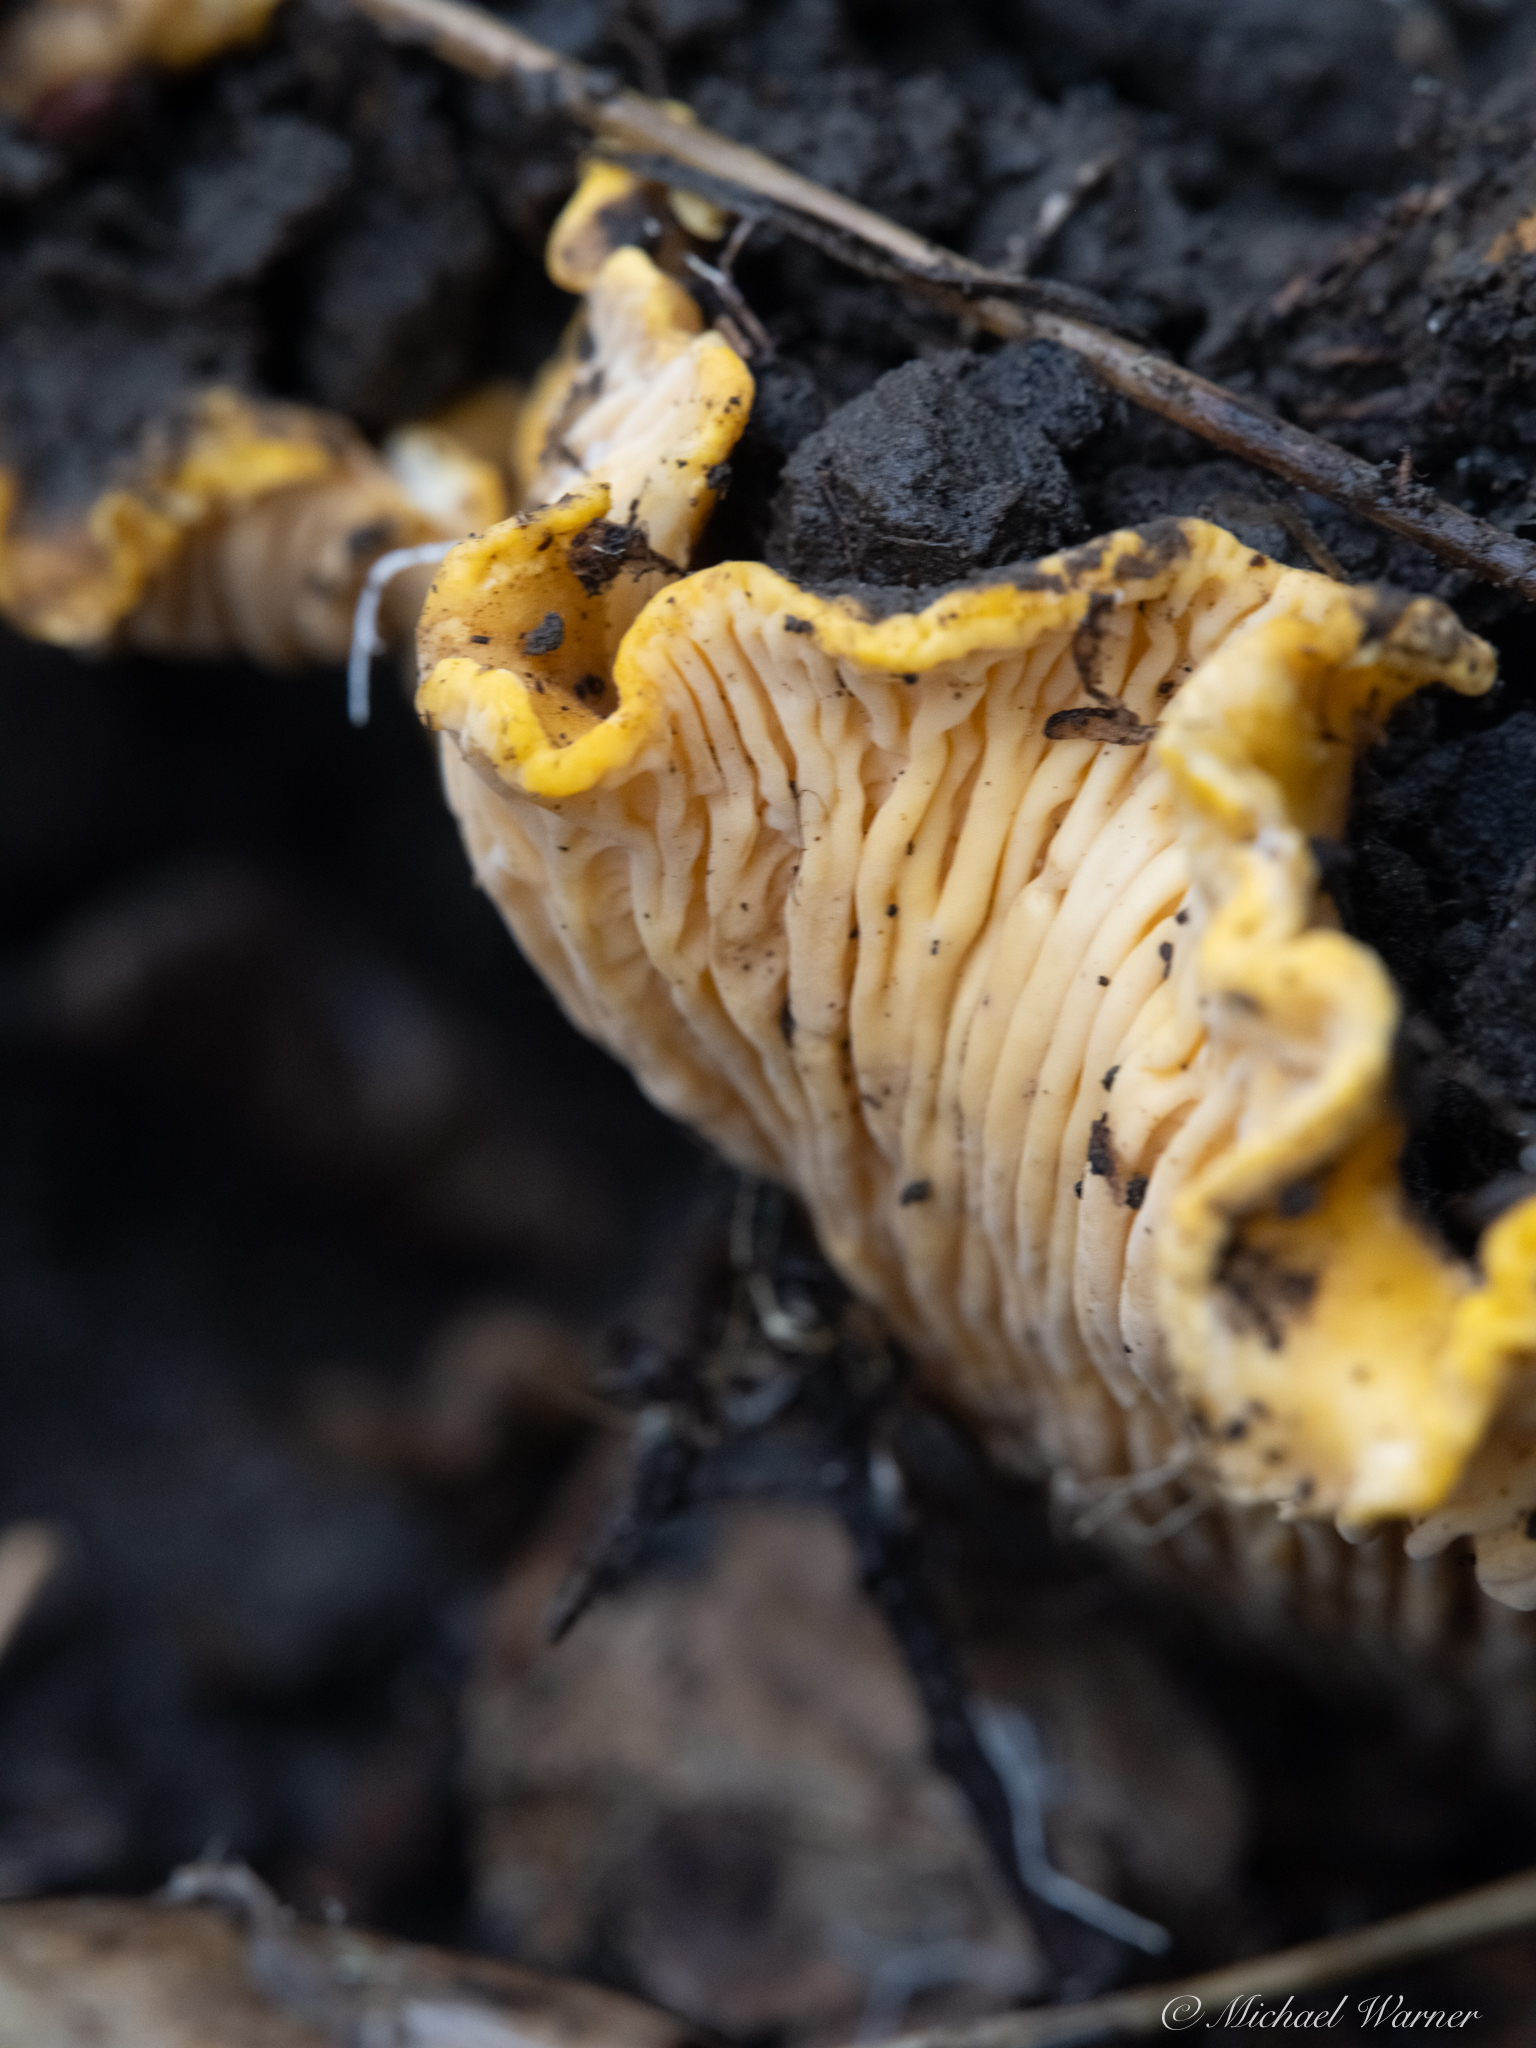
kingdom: Fungi
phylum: Basidiomycota
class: Agaricomycetes
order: Cantharellales
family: Hydnaceae
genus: Cantharellus
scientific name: Cantharellus californicus
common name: California golden chanterelle
